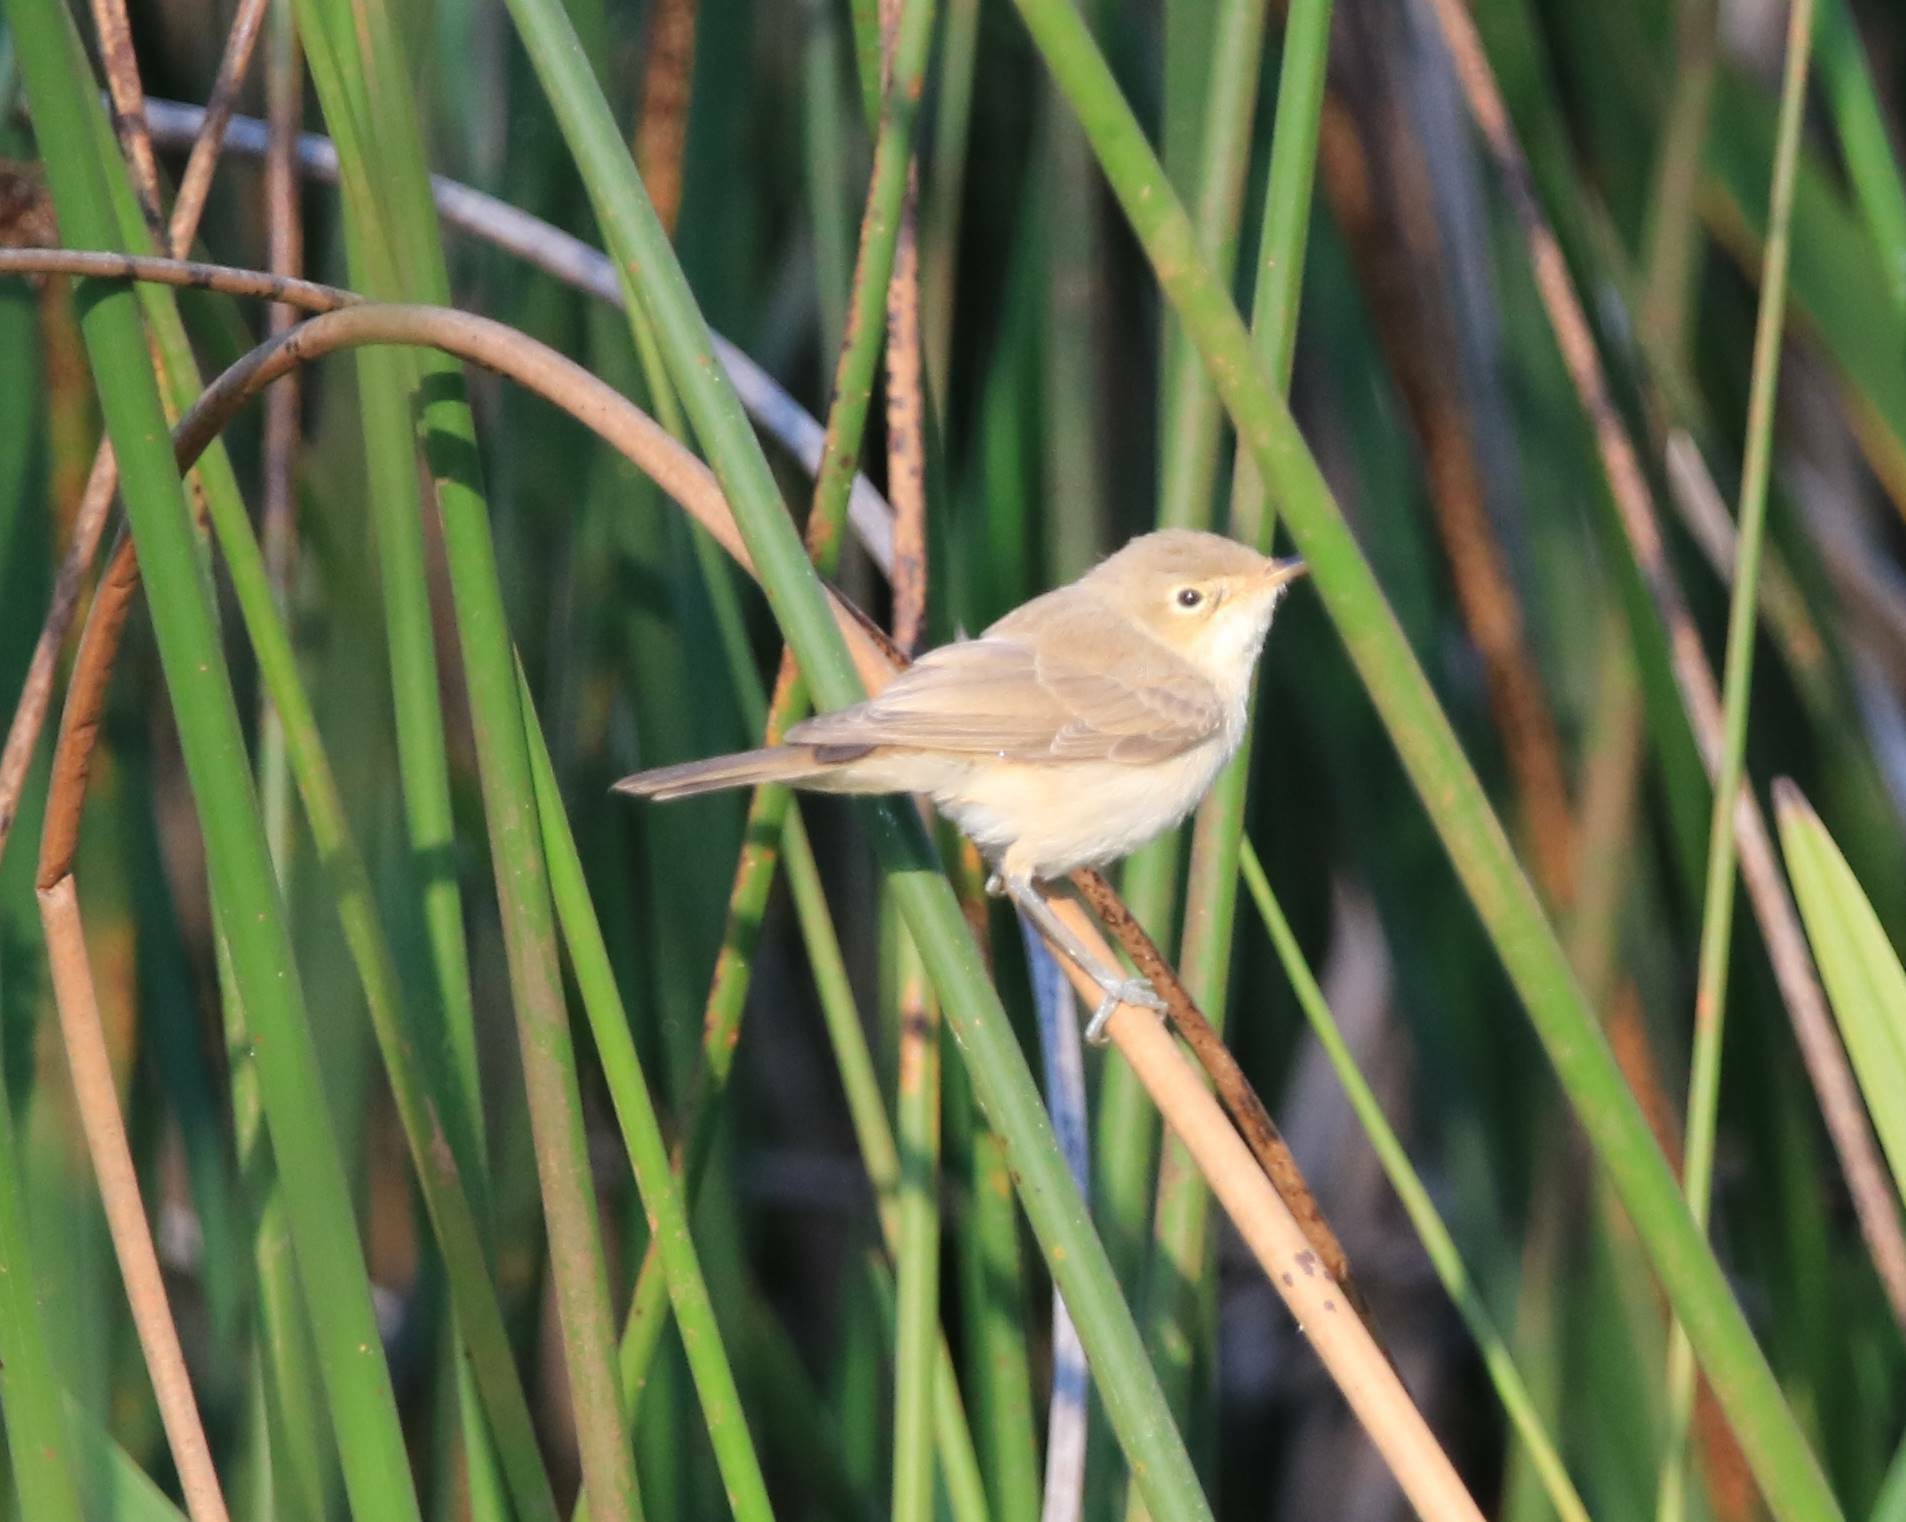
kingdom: Animalia
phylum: Chordata
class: Aves
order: Passeriformes
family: Acrocephalidae
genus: Acrocephalus
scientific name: Acrocephalus scirpaceus
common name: Eurasian reed warbler
